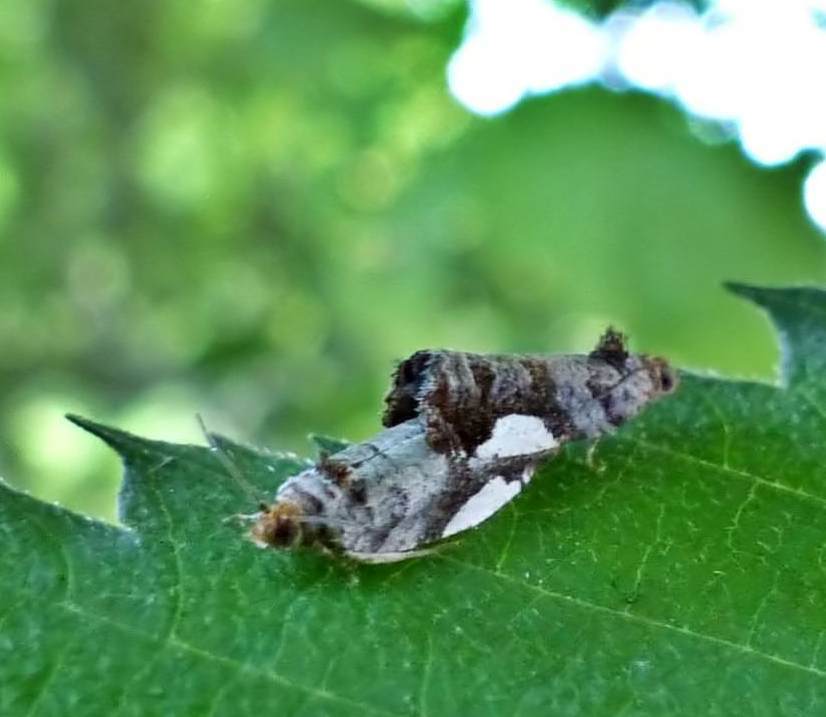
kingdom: Animalia
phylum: Arthropoda
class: Insecta
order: Lepidoptera
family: Tortricidae
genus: Hedya
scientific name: Hedya chionosema
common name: White-spotted hedya moth
